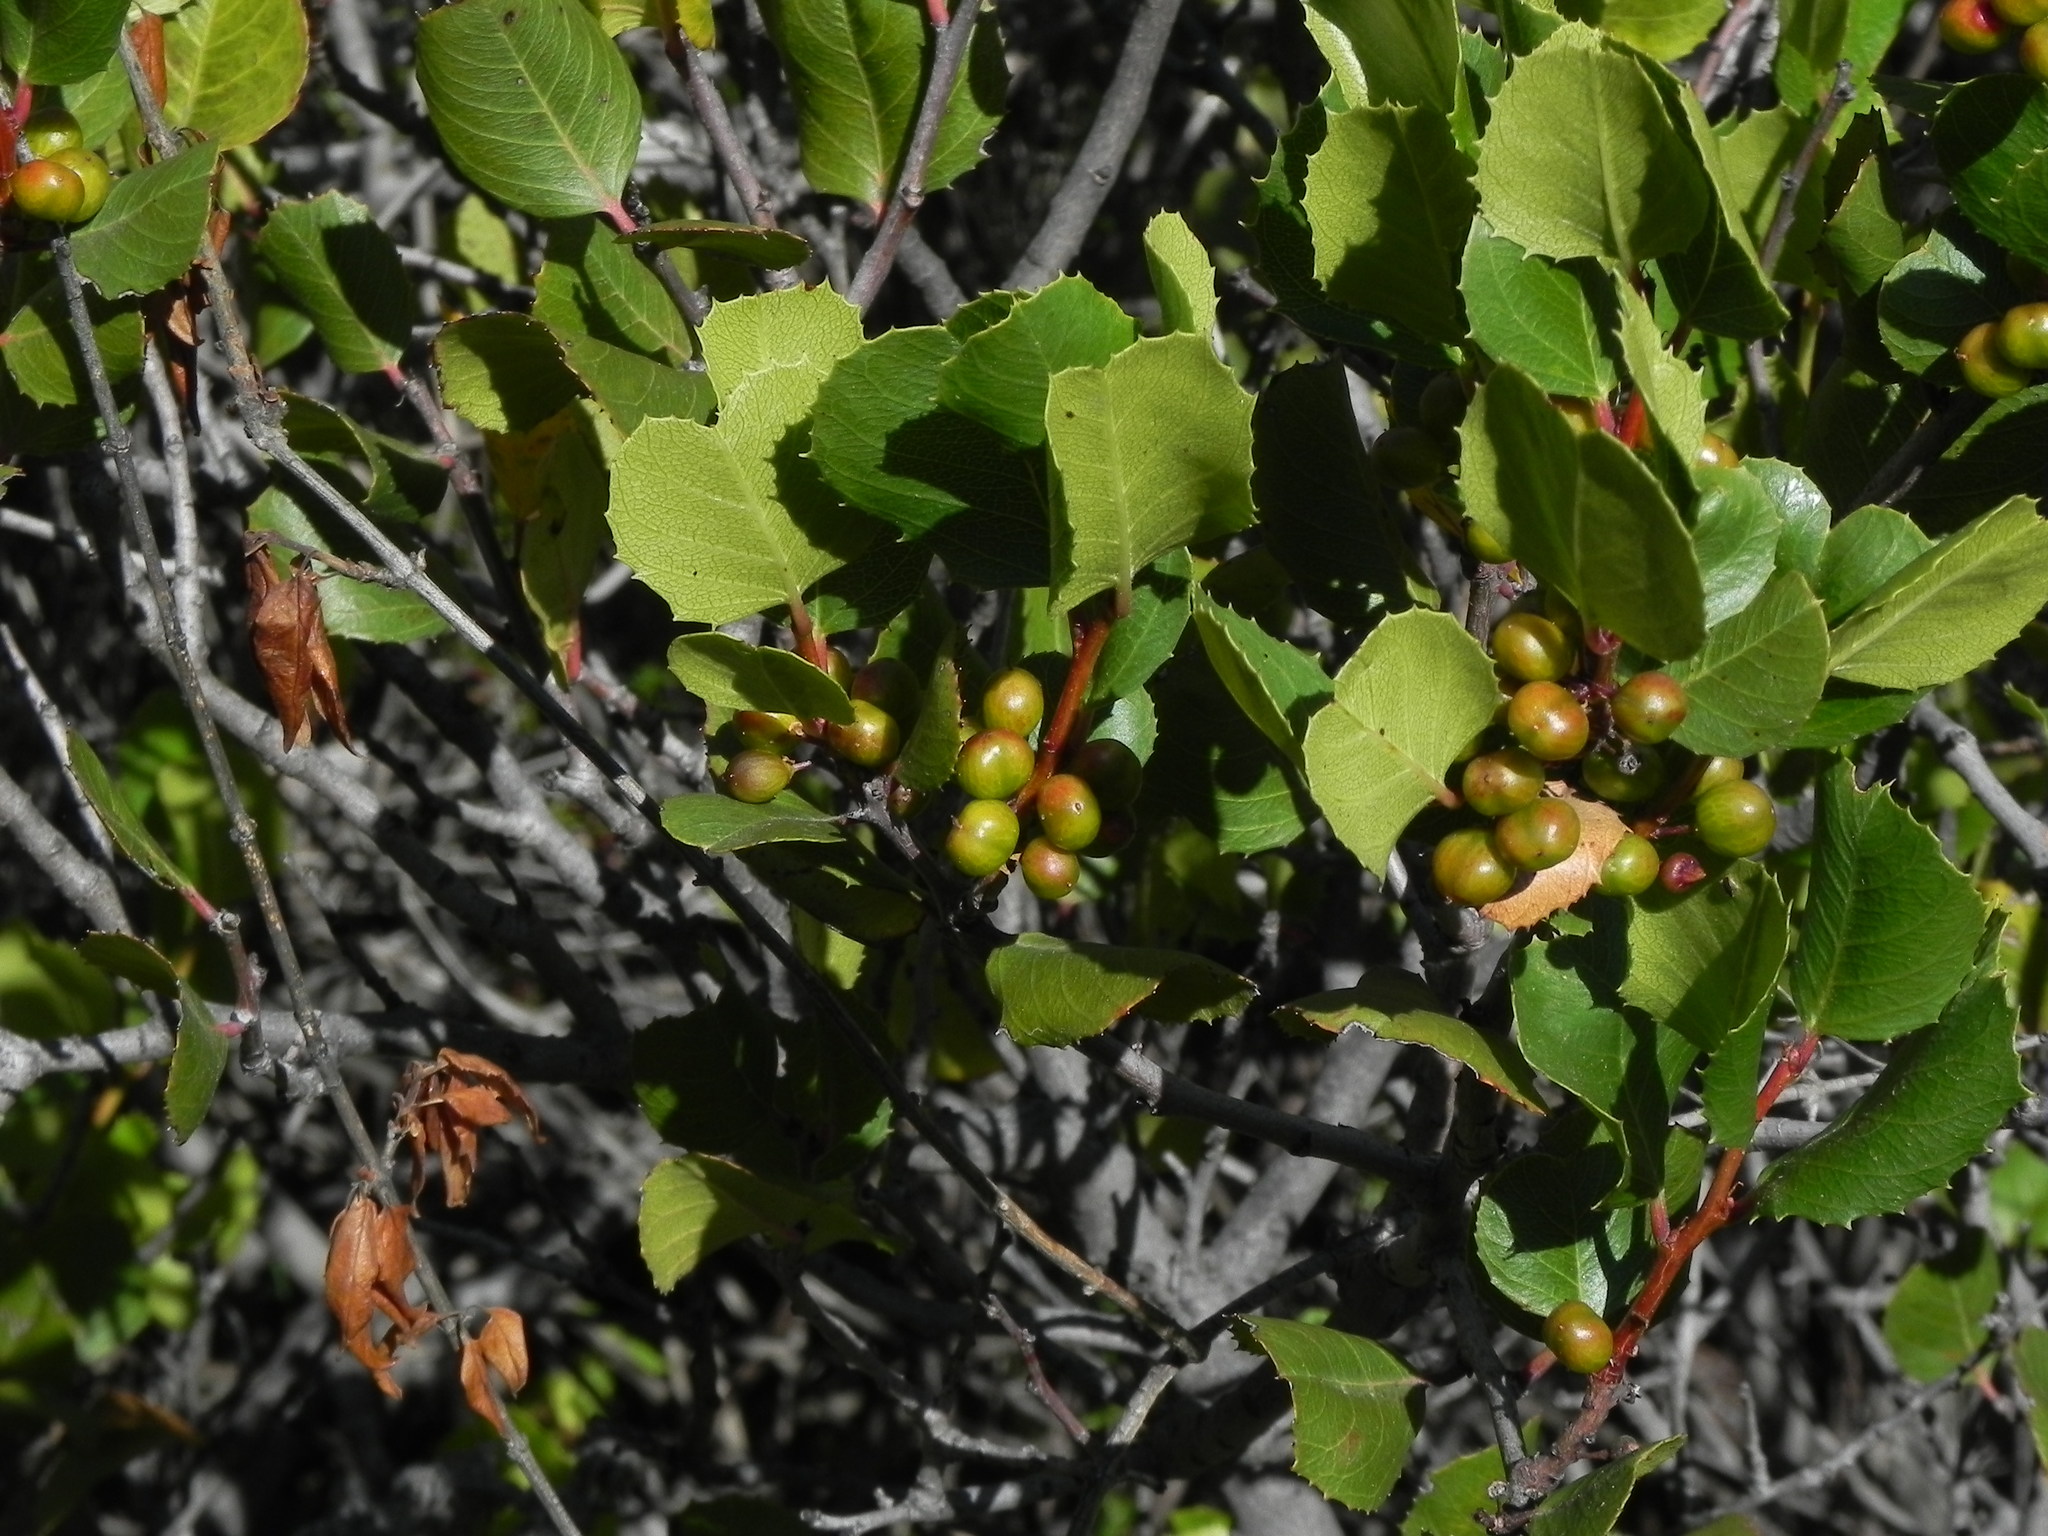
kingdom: Plantae
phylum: Tracheophyta
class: Magnoliopsida
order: Rosales
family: Rhamnaceae
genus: Endotropis
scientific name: Endotropis crocea
